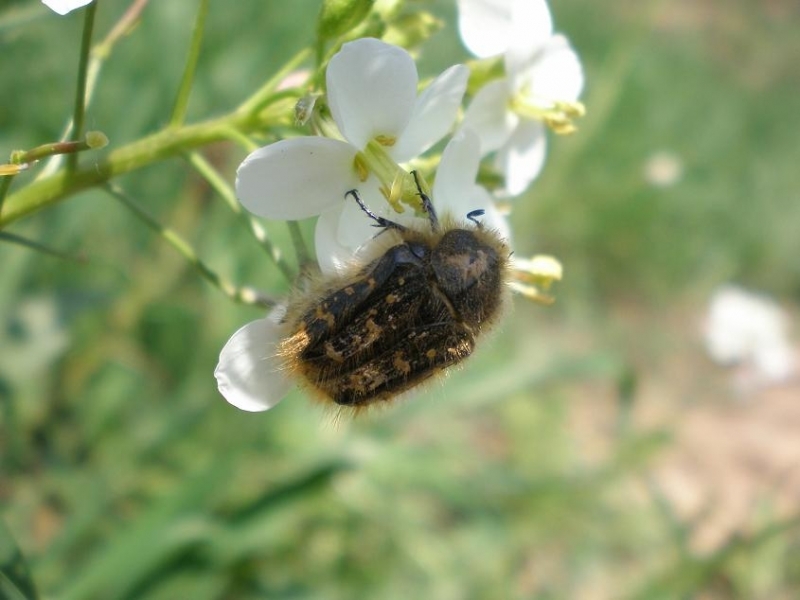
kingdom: Animalia
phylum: Arthropoda
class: Insecta
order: Coleoptera
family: Scarabaeidae
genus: Tropinota
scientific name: Tropinota squalida
